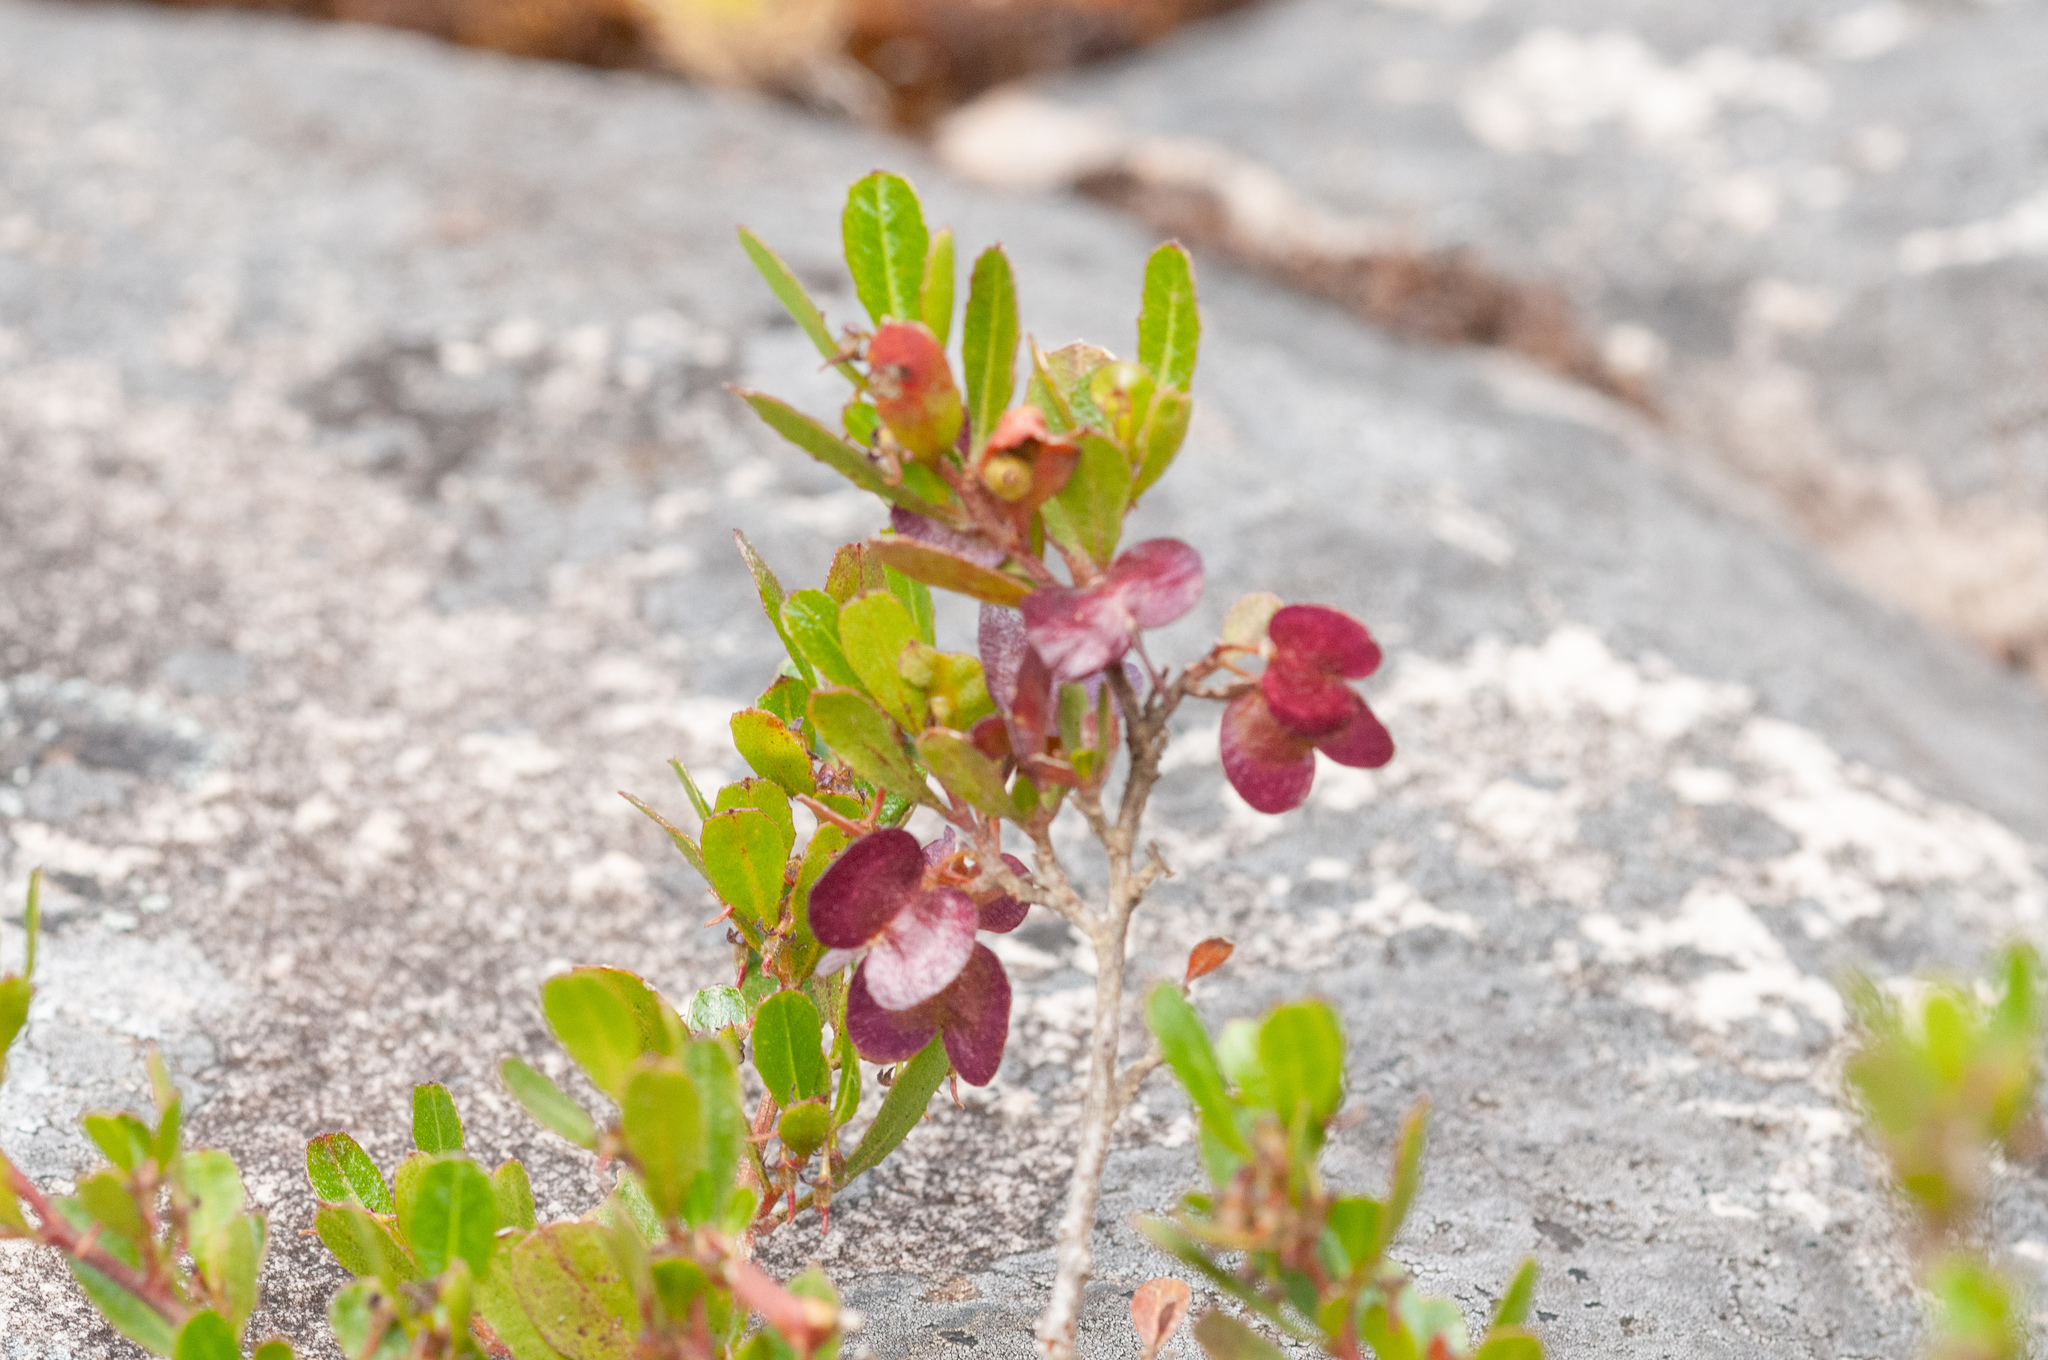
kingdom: Plantae
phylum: Tracheophyta
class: Magnoliopsida
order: Sapindales
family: Sapindaceae
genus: Dodonaea
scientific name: Dodonaea viscosa
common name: Hopbush
